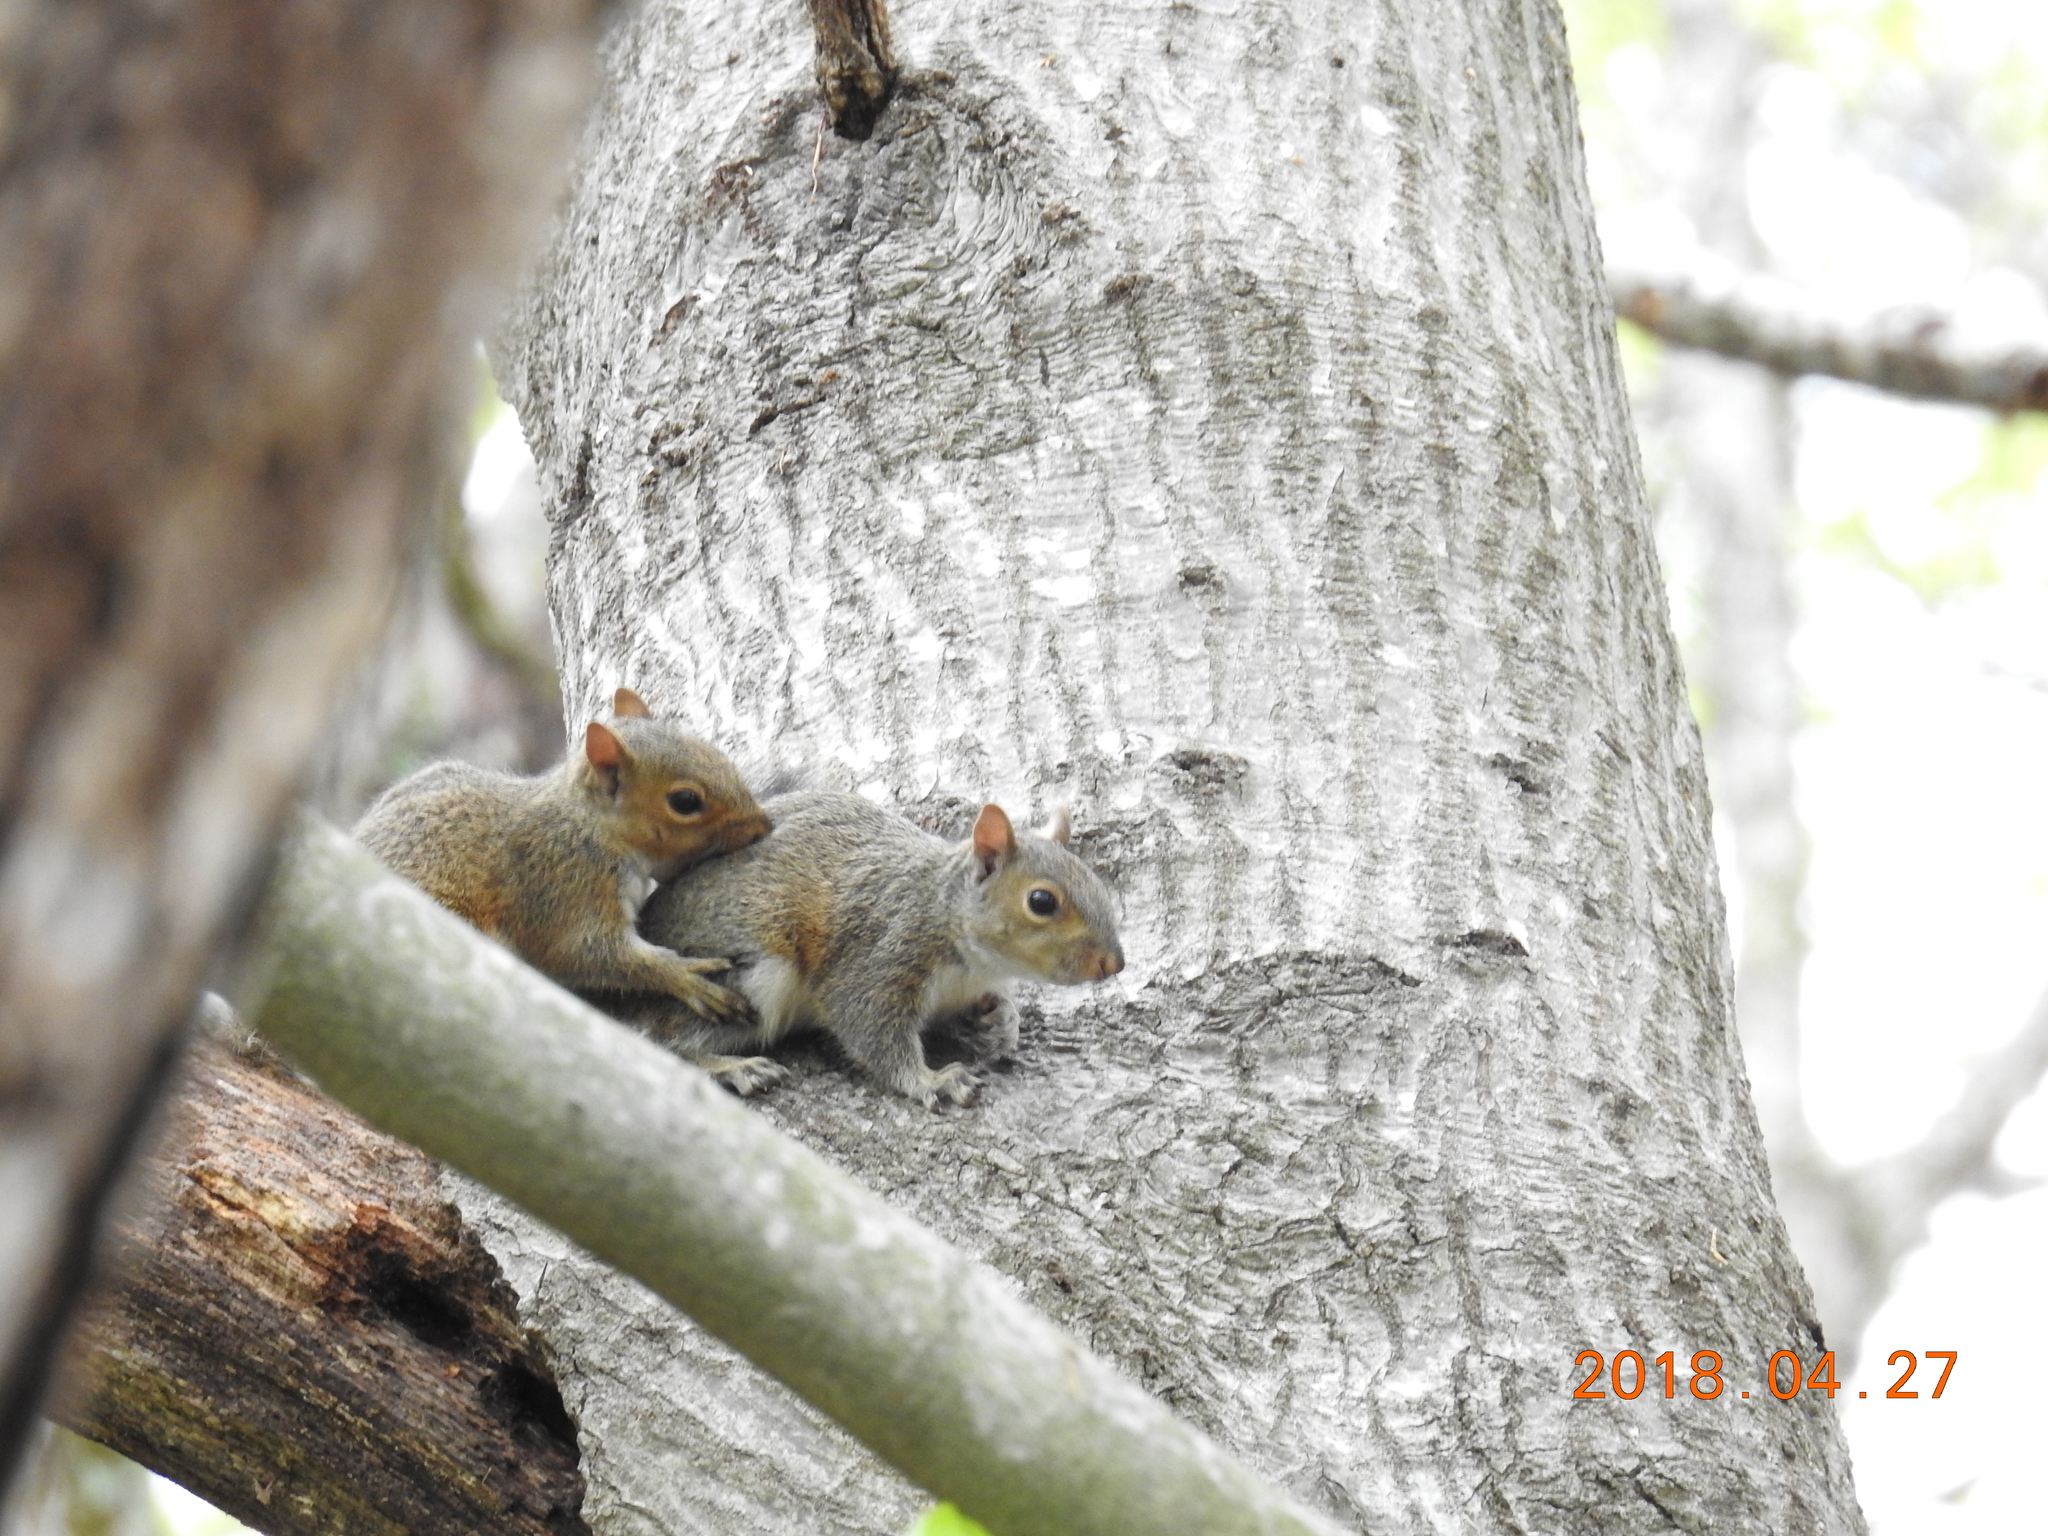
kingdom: Animalia
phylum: Chordata
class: Mammalia
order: Rodentia
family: Sciuridae
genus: Sciurus
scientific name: Sciurus carolinensis
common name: Eastern gray squirrel
